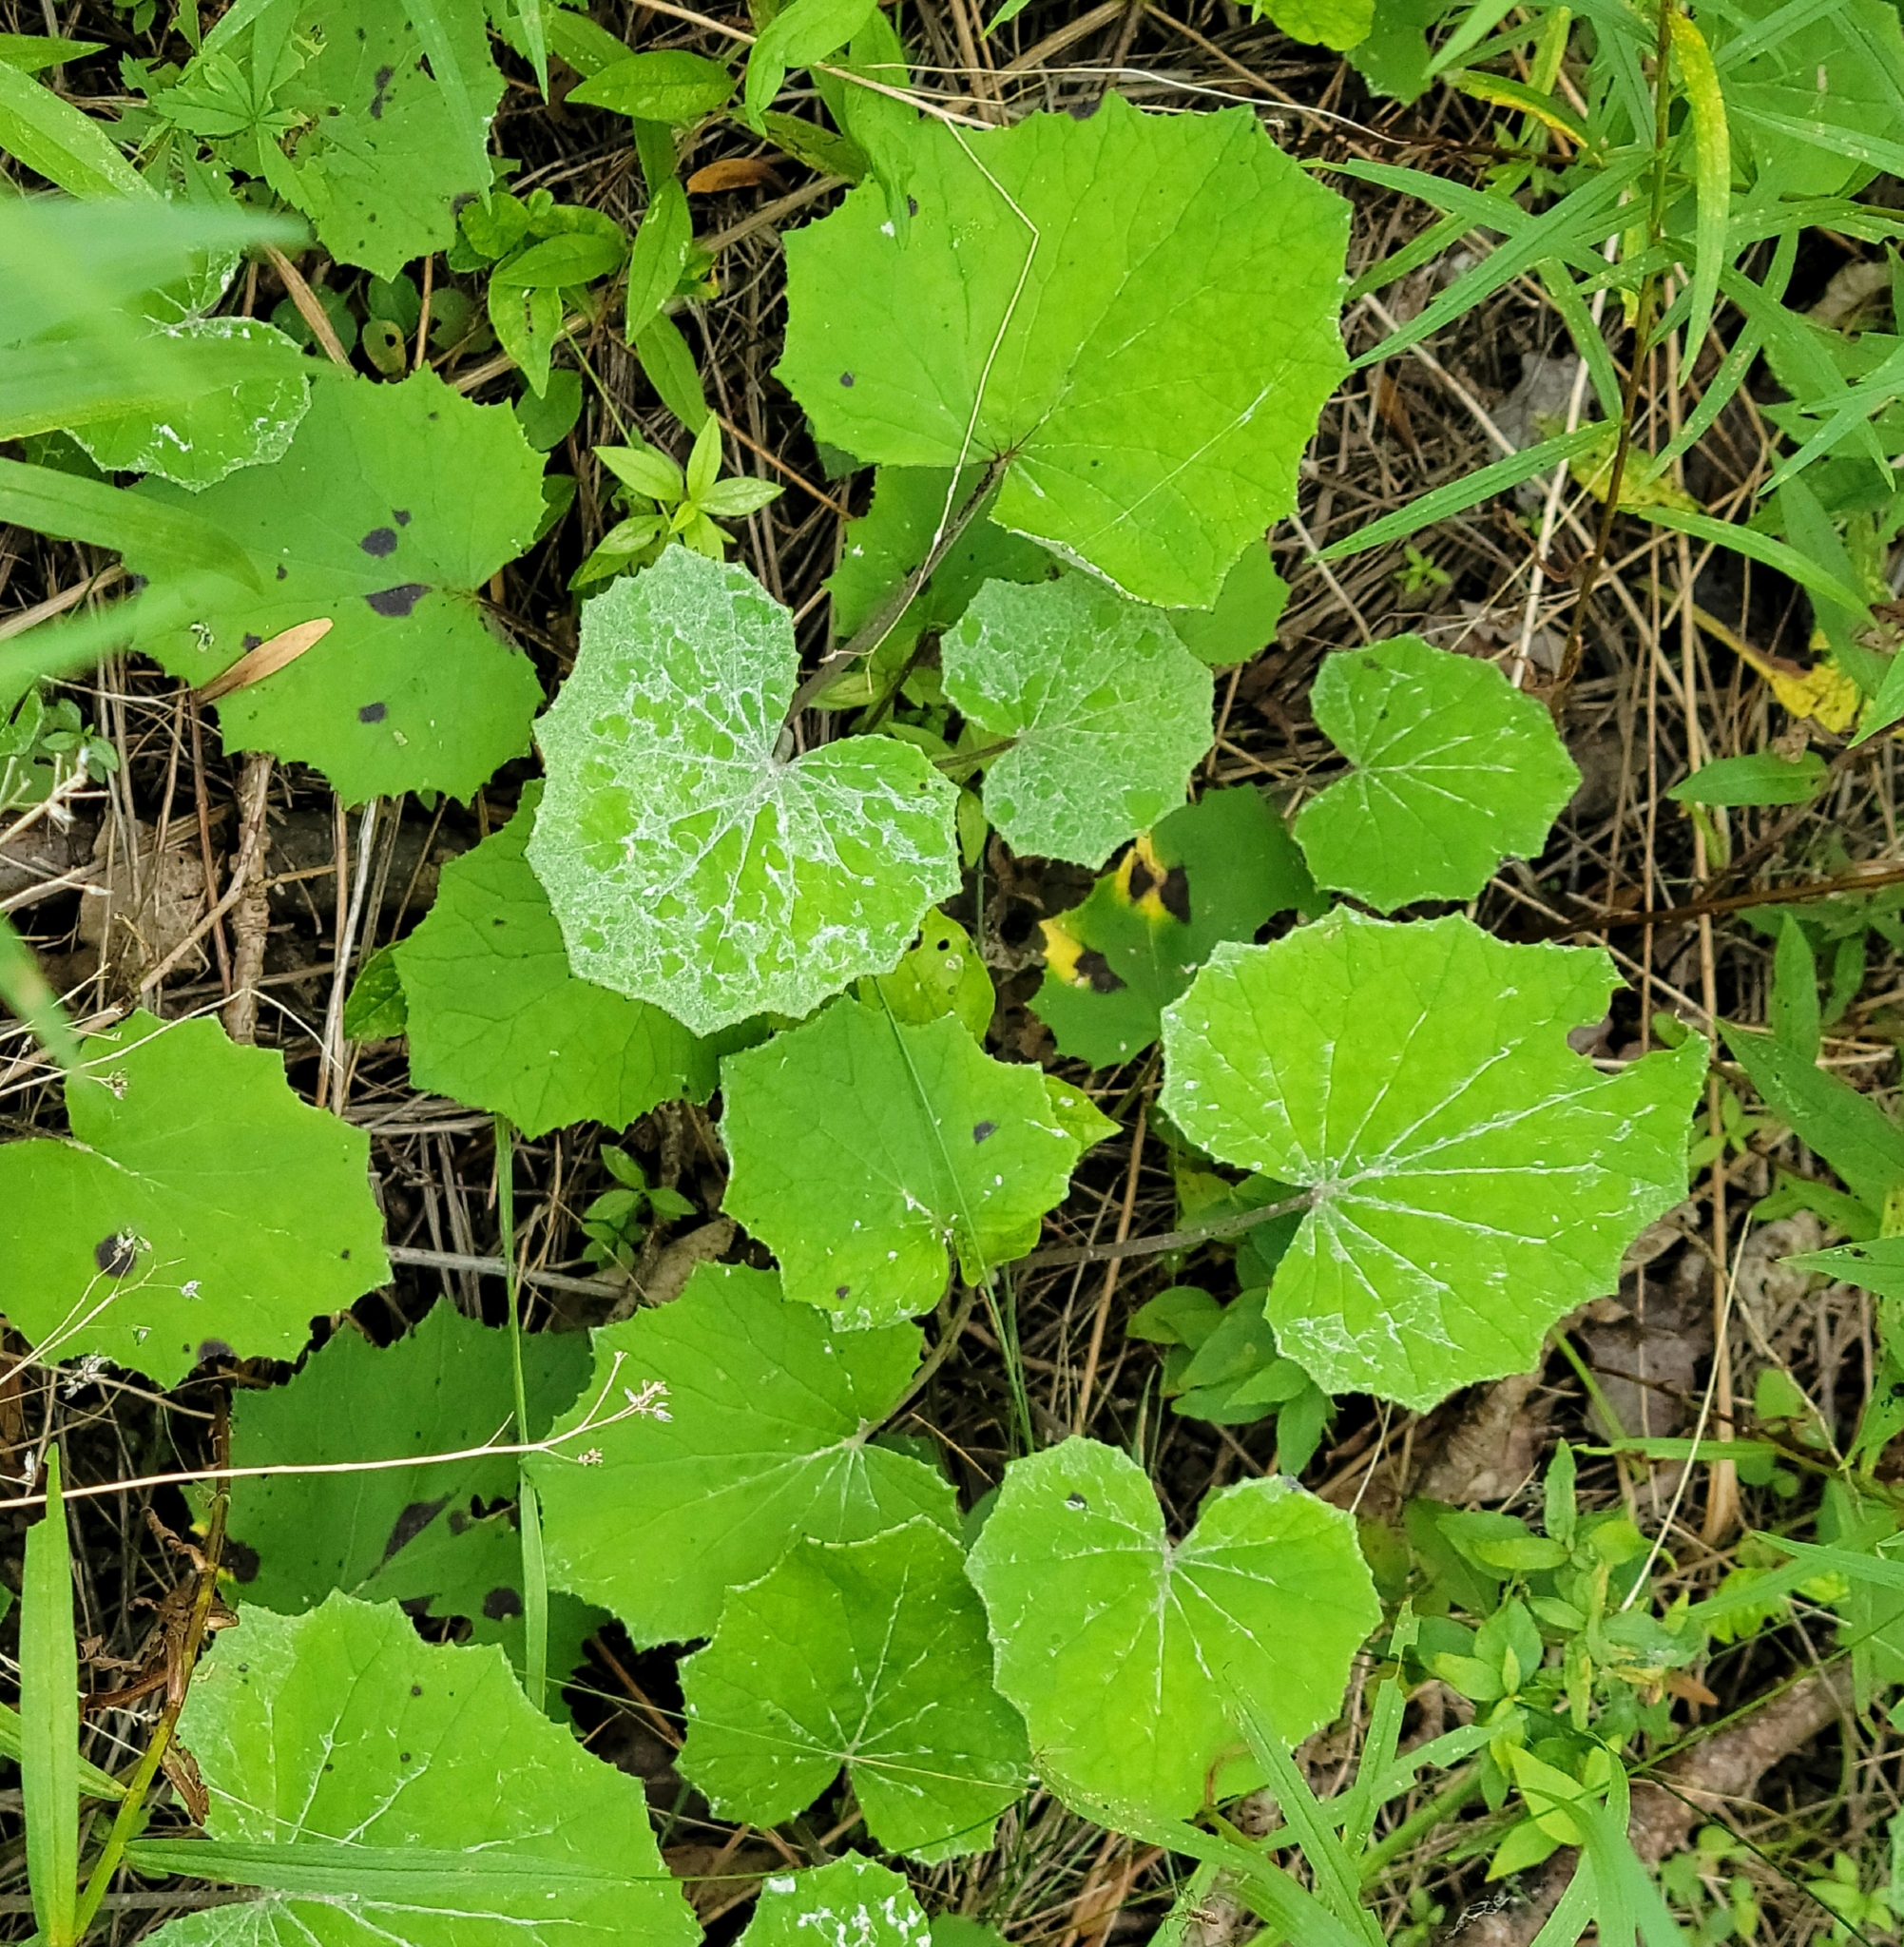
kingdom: Plantae
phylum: Tracheophyta
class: Magnoliopsida
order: Asterales
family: Asteraceae
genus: Tussilago
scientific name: Tussilago farfara
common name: Coltsfoot
